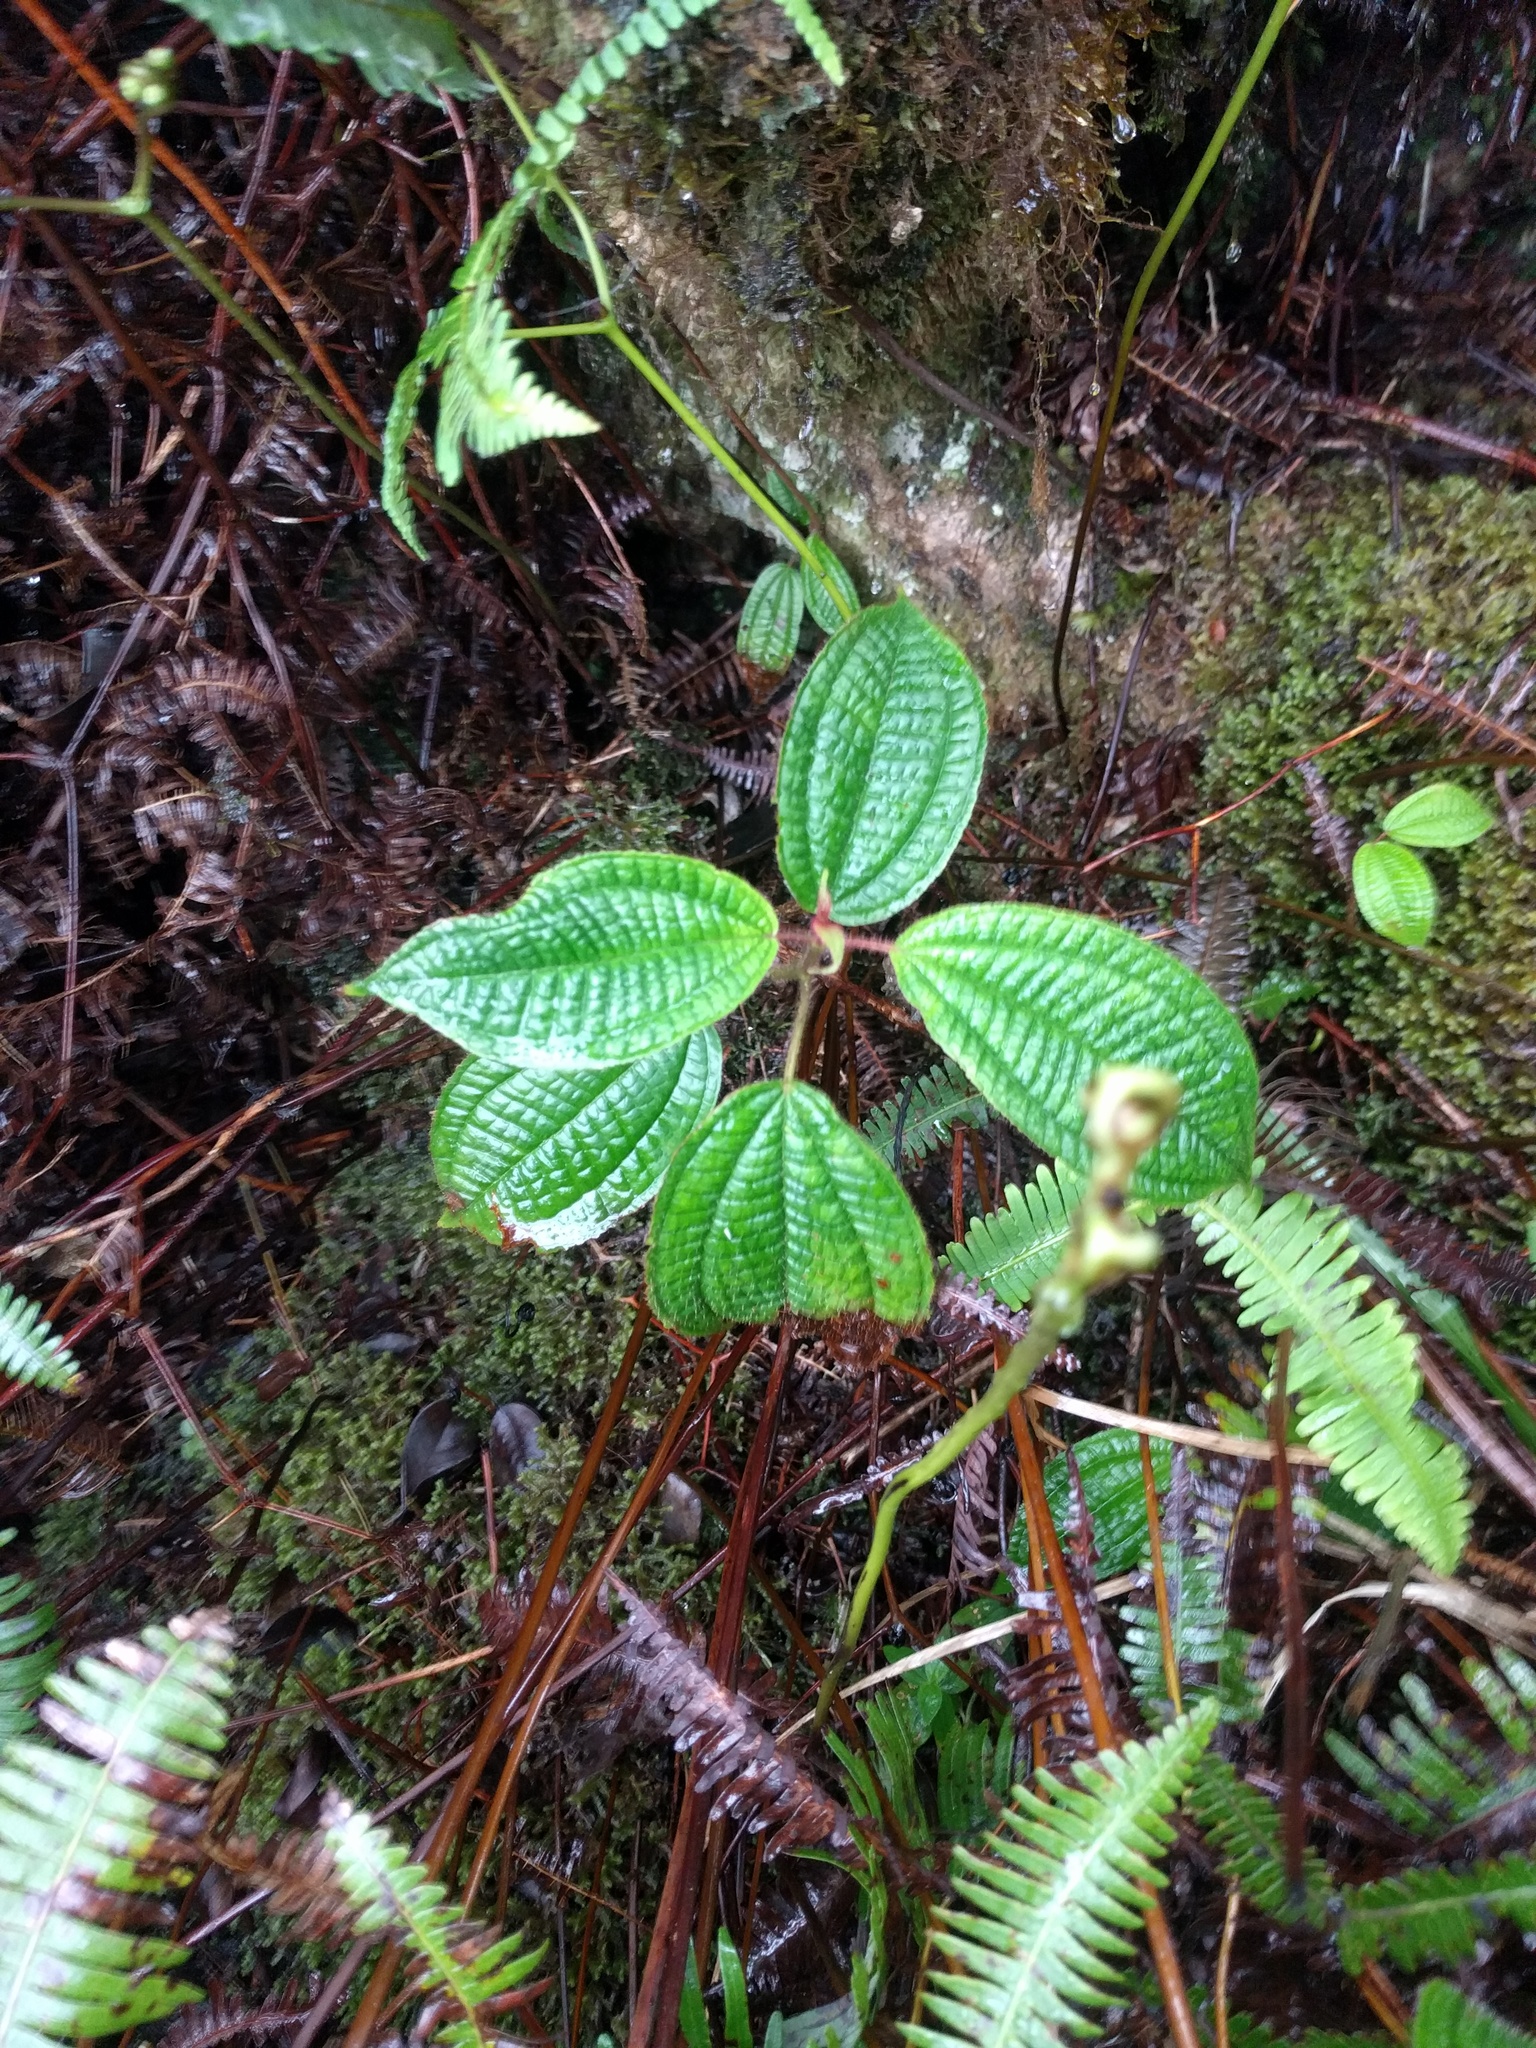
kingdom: Plantae
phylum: Tracheophyta
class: Magnoliopsida
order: Myrtales
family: Melastomataceae
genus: Miconia
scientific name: Miconia crenata
